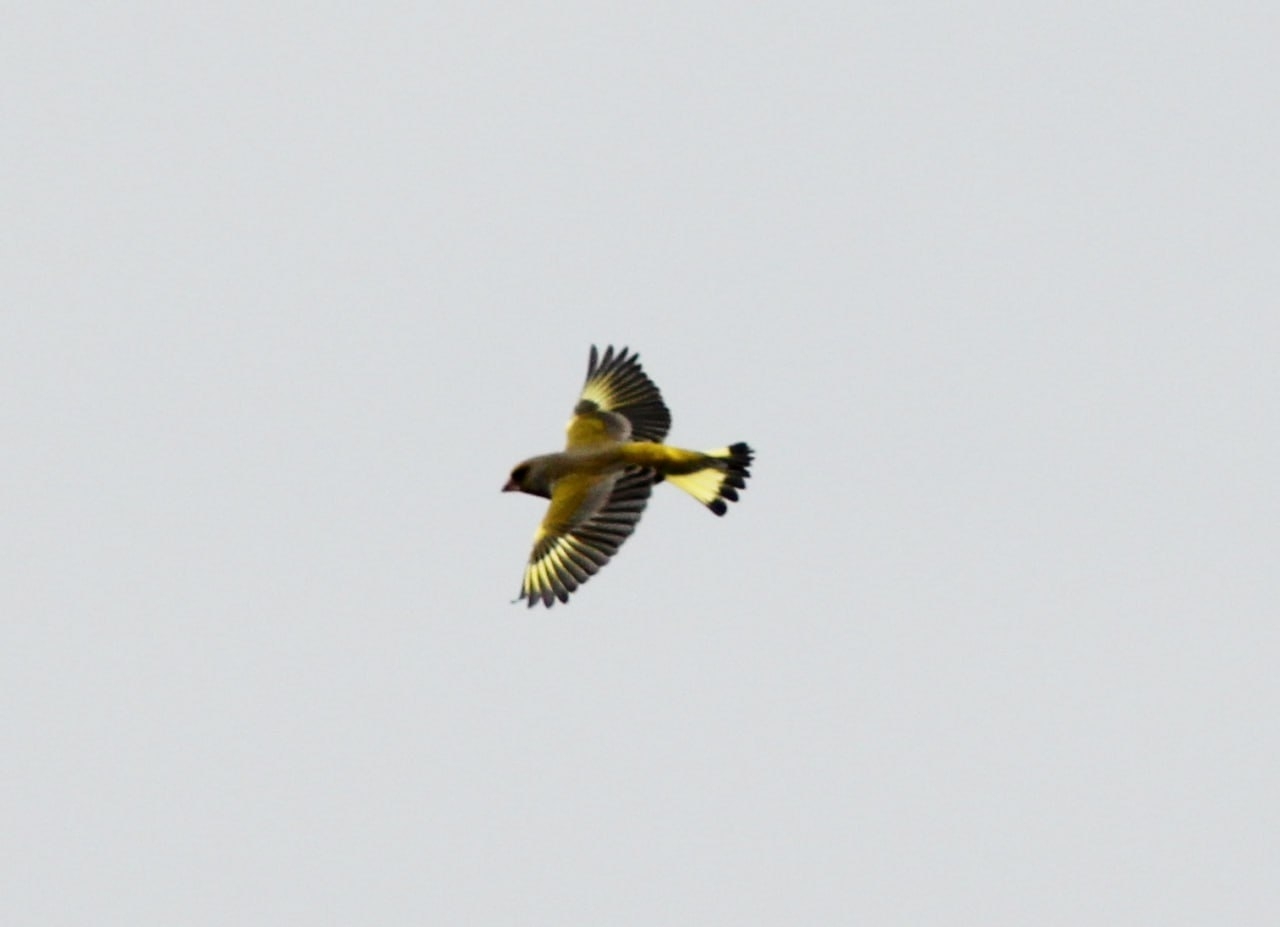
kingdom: Plantae
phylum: Tracheophyta
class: Liliopsida
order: Poales
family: Poaceae
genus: Chloris
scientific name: Chloris chloris
